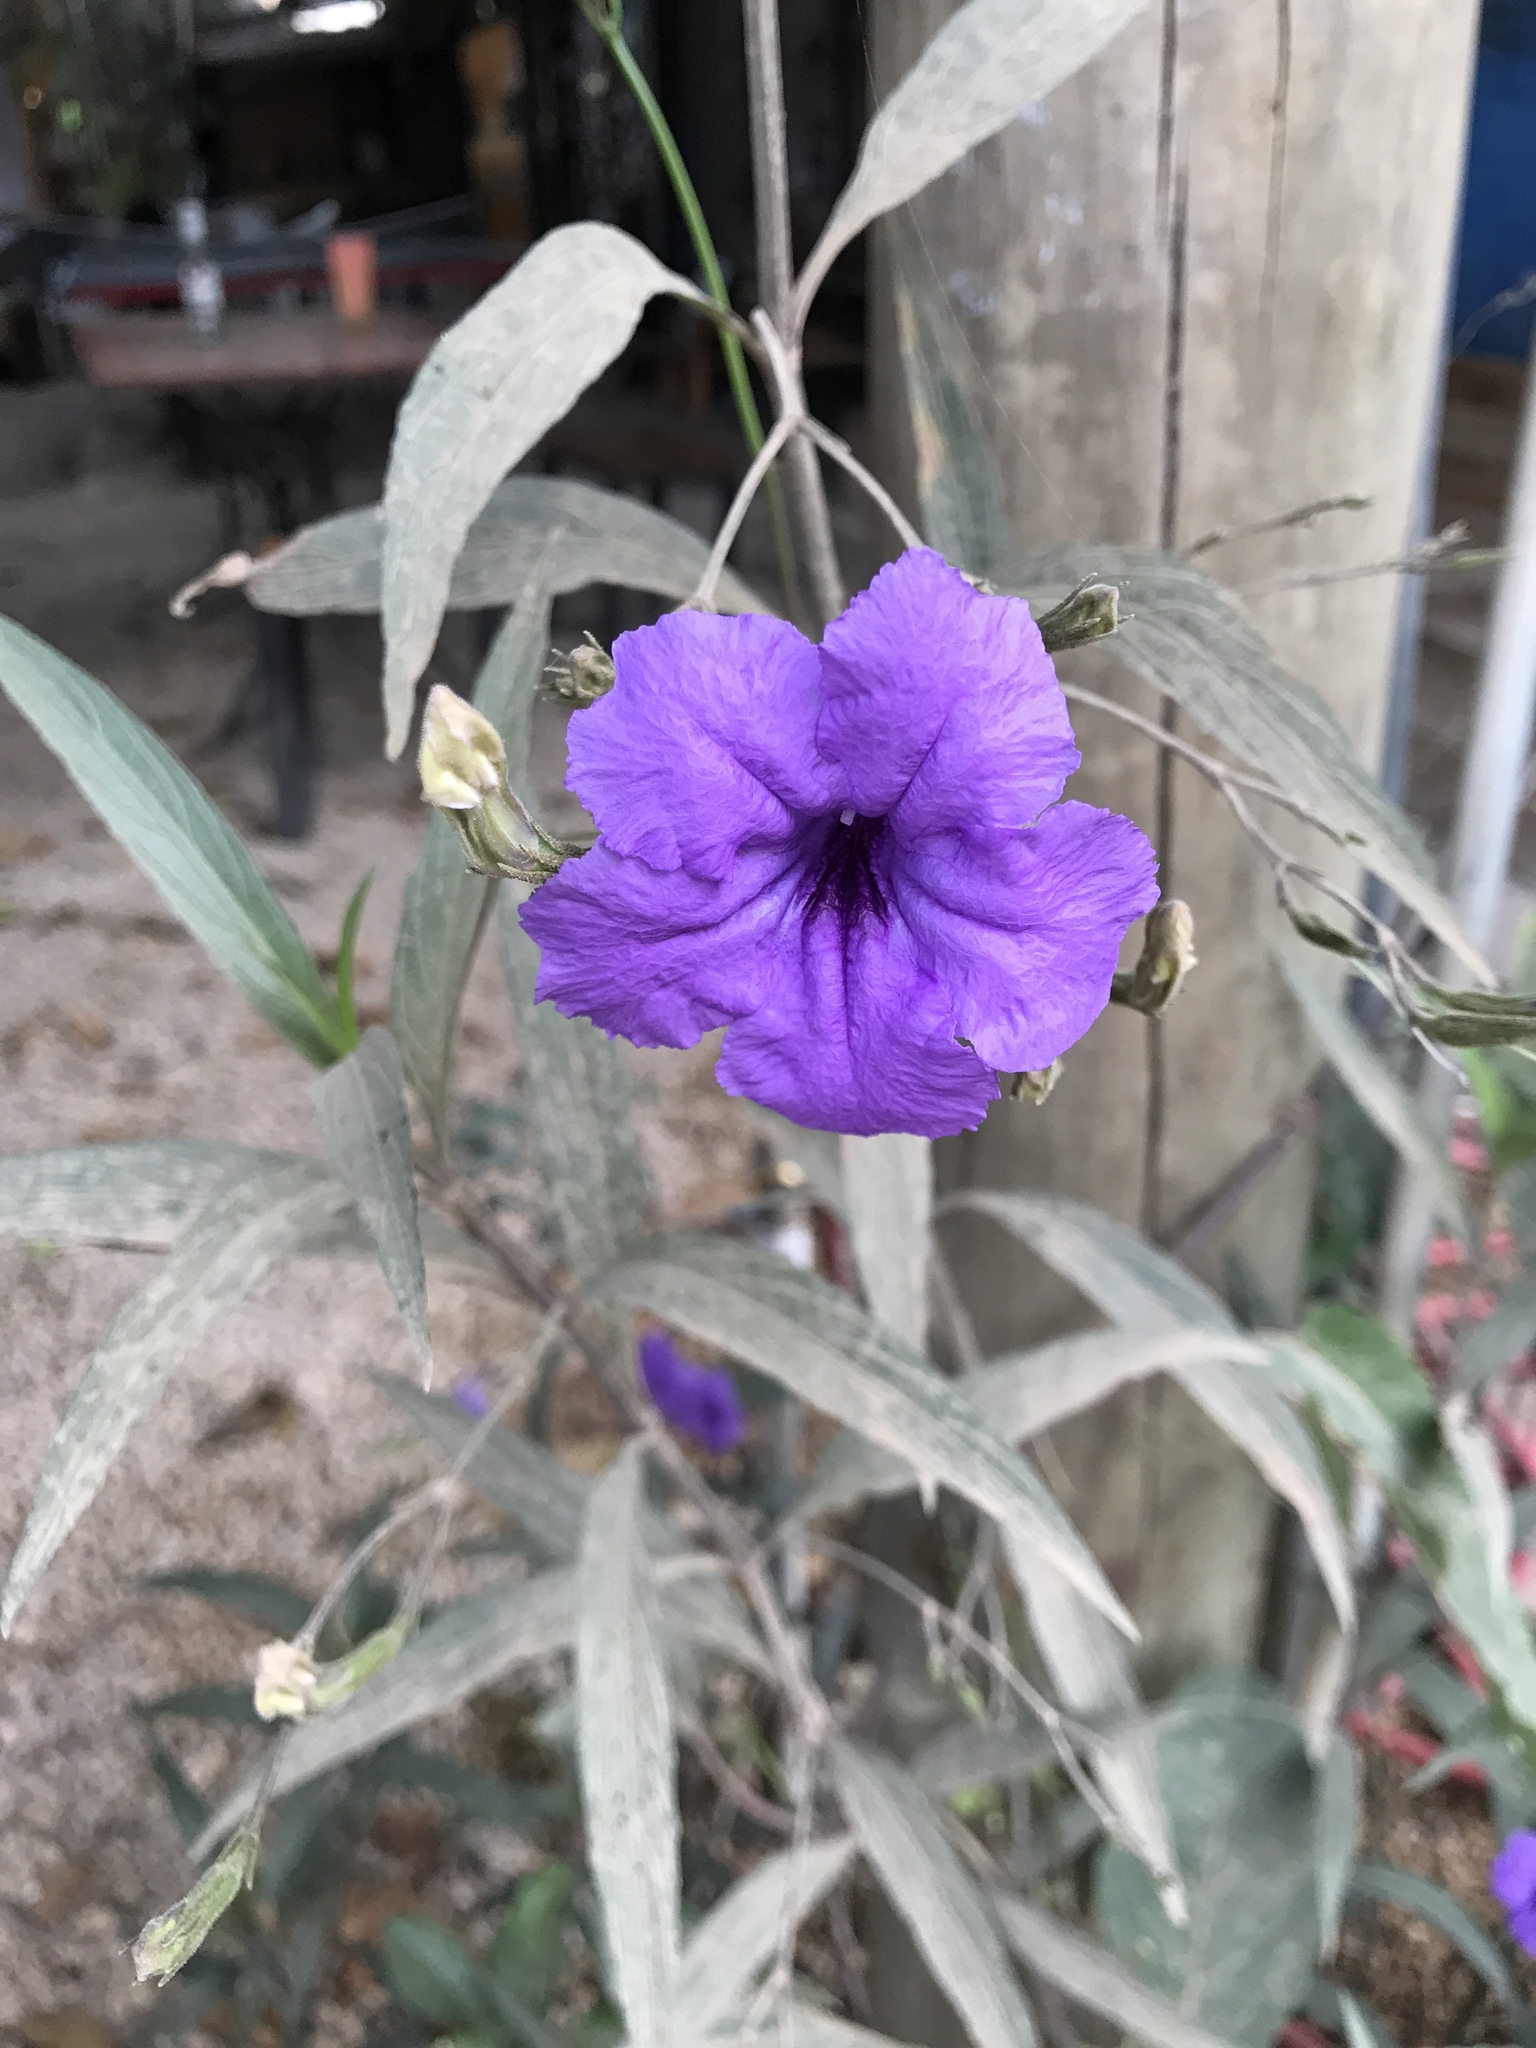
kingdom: Plantae
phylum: Tracheophyta
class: Magnoliopsida
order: Lamiales
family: Acanthaceae
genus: Ruellia
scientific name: Ruellia simplex
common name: Softseed wild petunia
